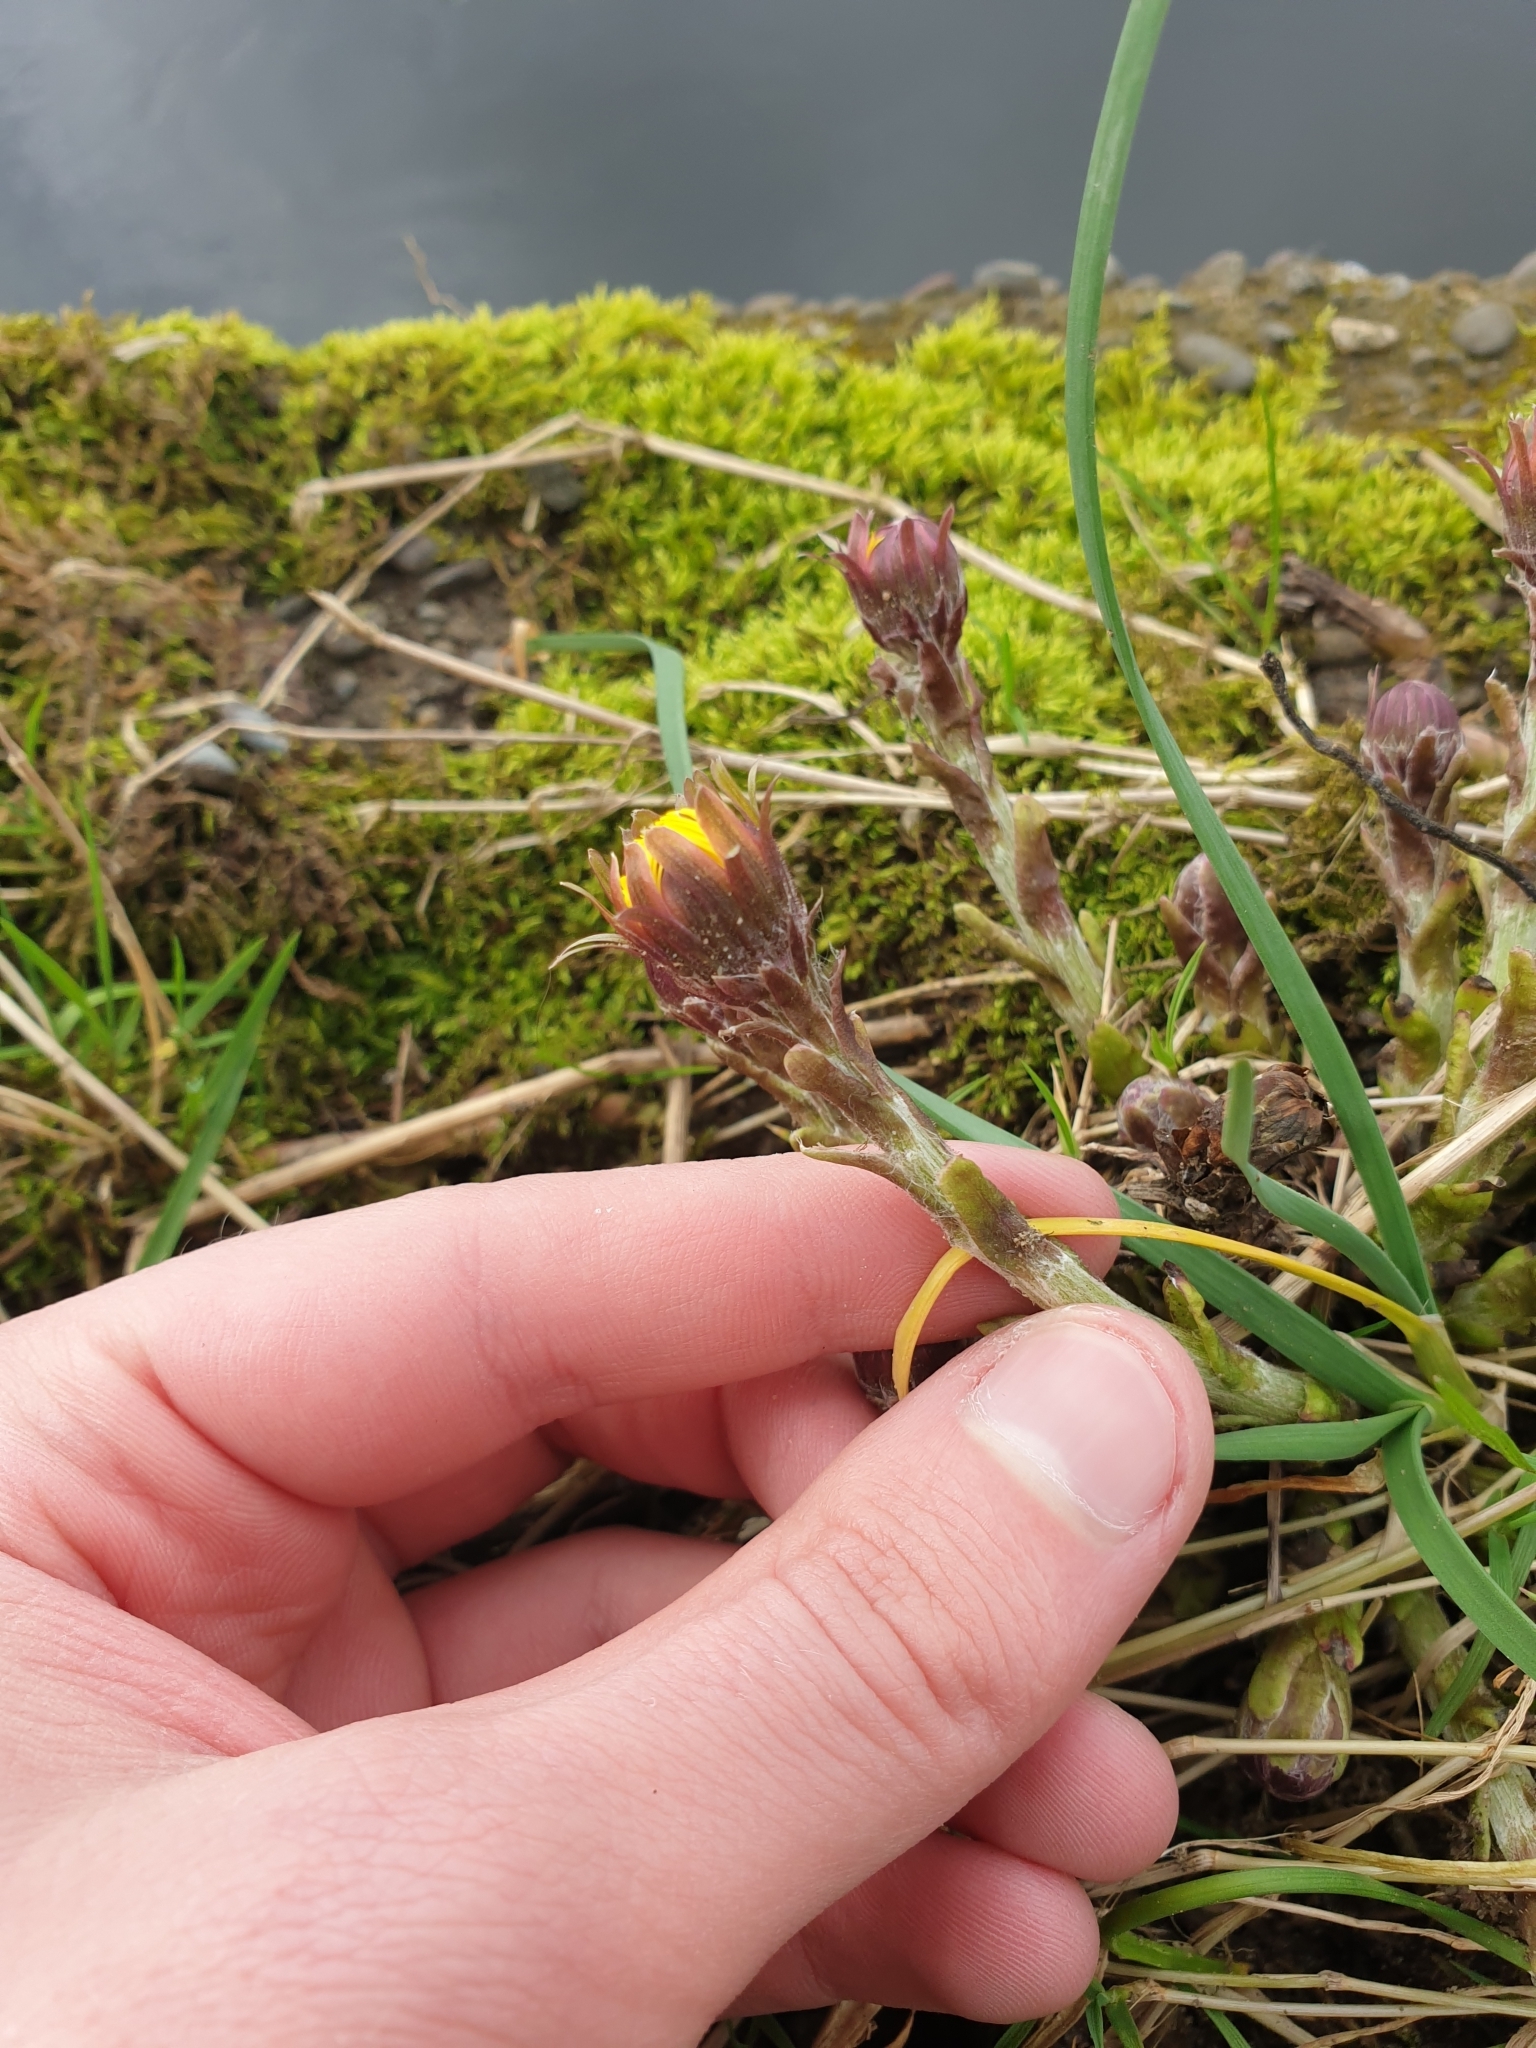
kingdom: Plantae
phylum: Tracheophyta
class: Magnoliopsida
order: Asterales
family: Asteraceae
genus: Tussilago
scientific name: Tussilago farfara
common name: Coltsfoot
